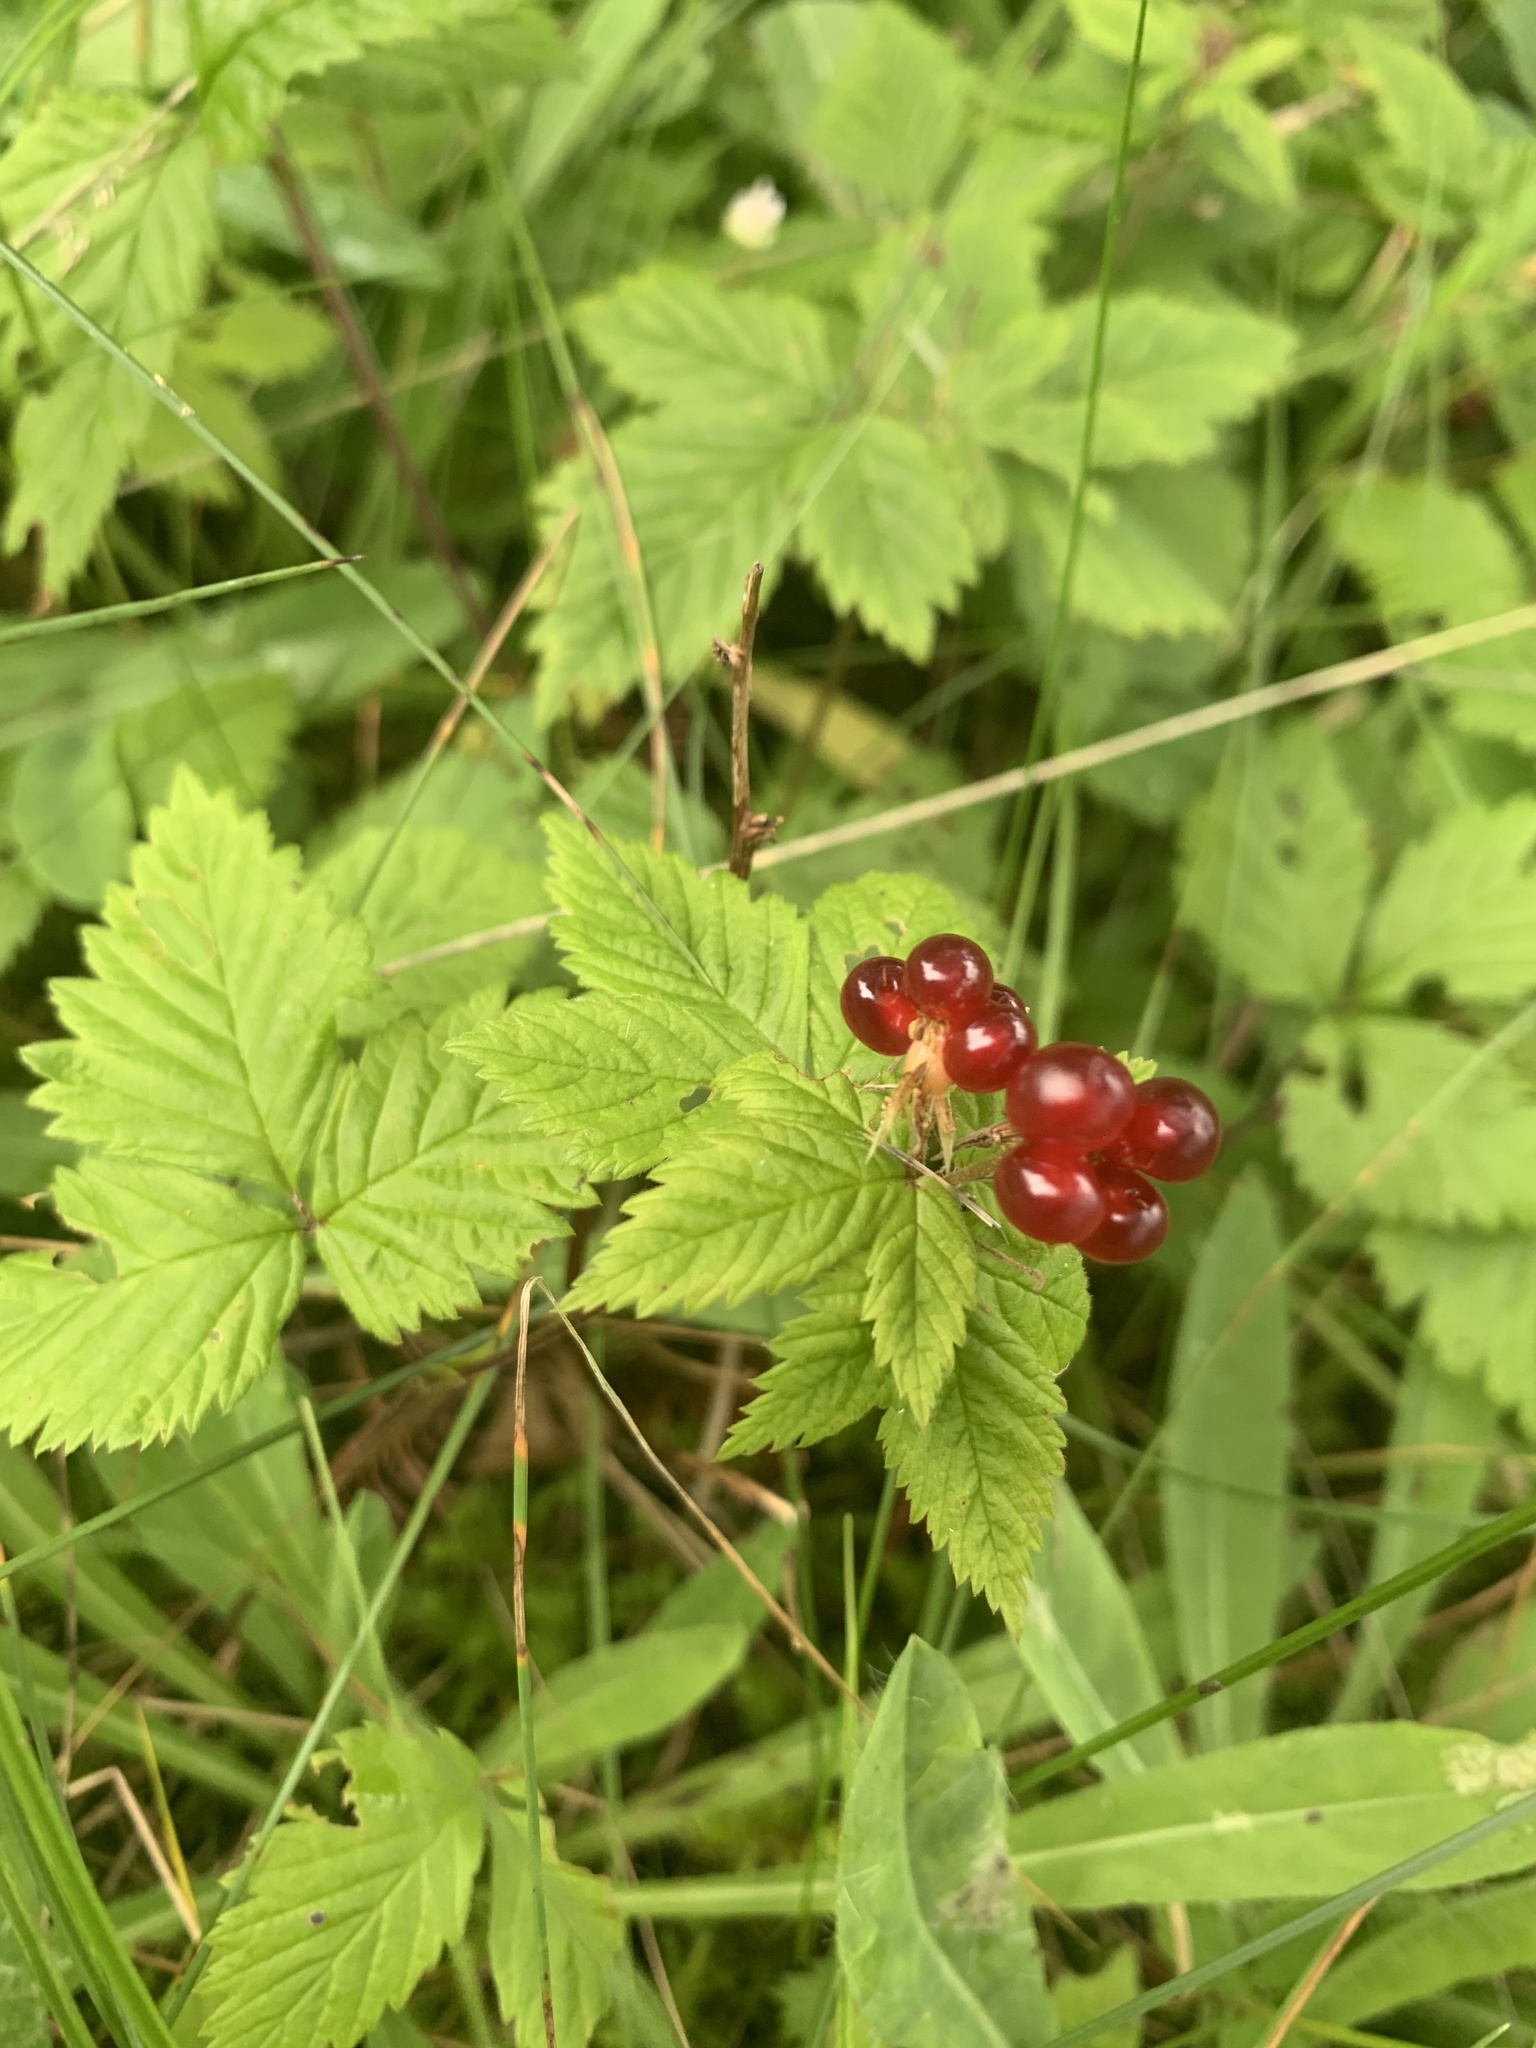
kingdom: Plantae
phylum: Tracheophyta
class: Magnoliopsida
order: Rosales
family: Rosaceae
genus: Rubus
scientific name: Rubus pubescens
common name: Dwarf raspberry
